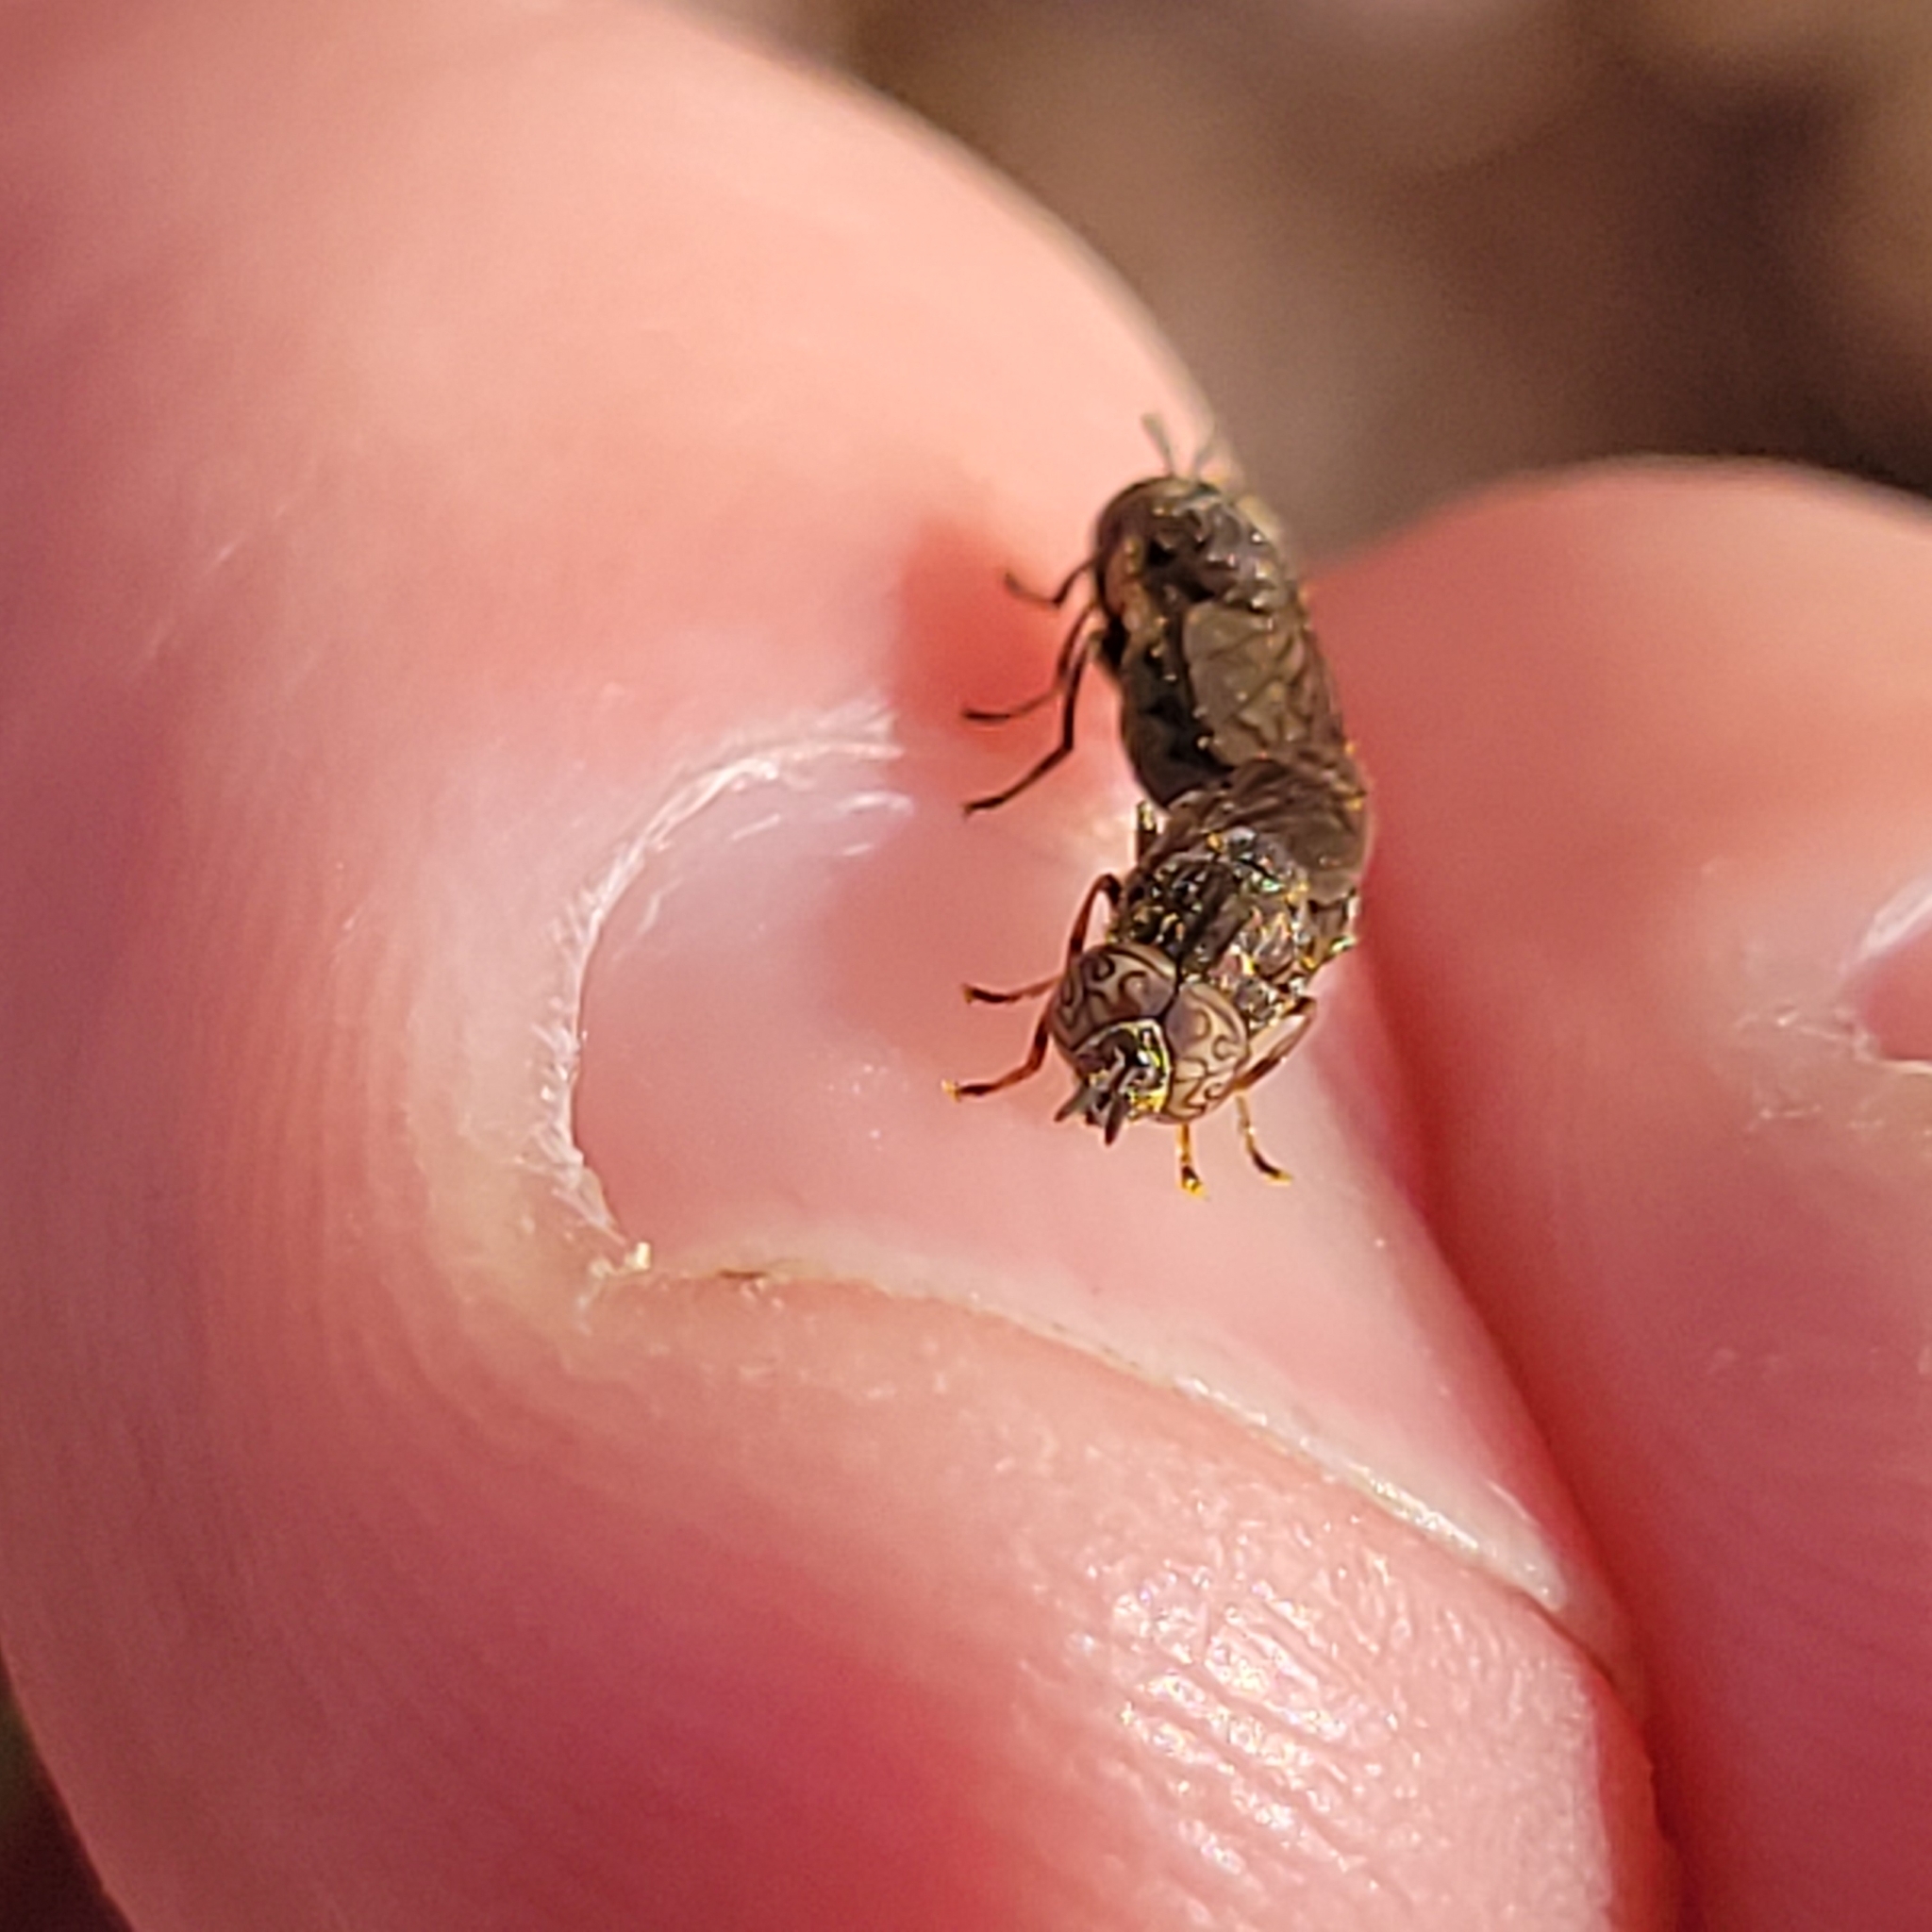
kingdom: Animalia
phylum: Arthropoda
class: Insecta
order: Diptera
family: Syrphidae
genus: Orthonevra
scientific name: Orthonevra nitida
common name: Wavy mucksucker
